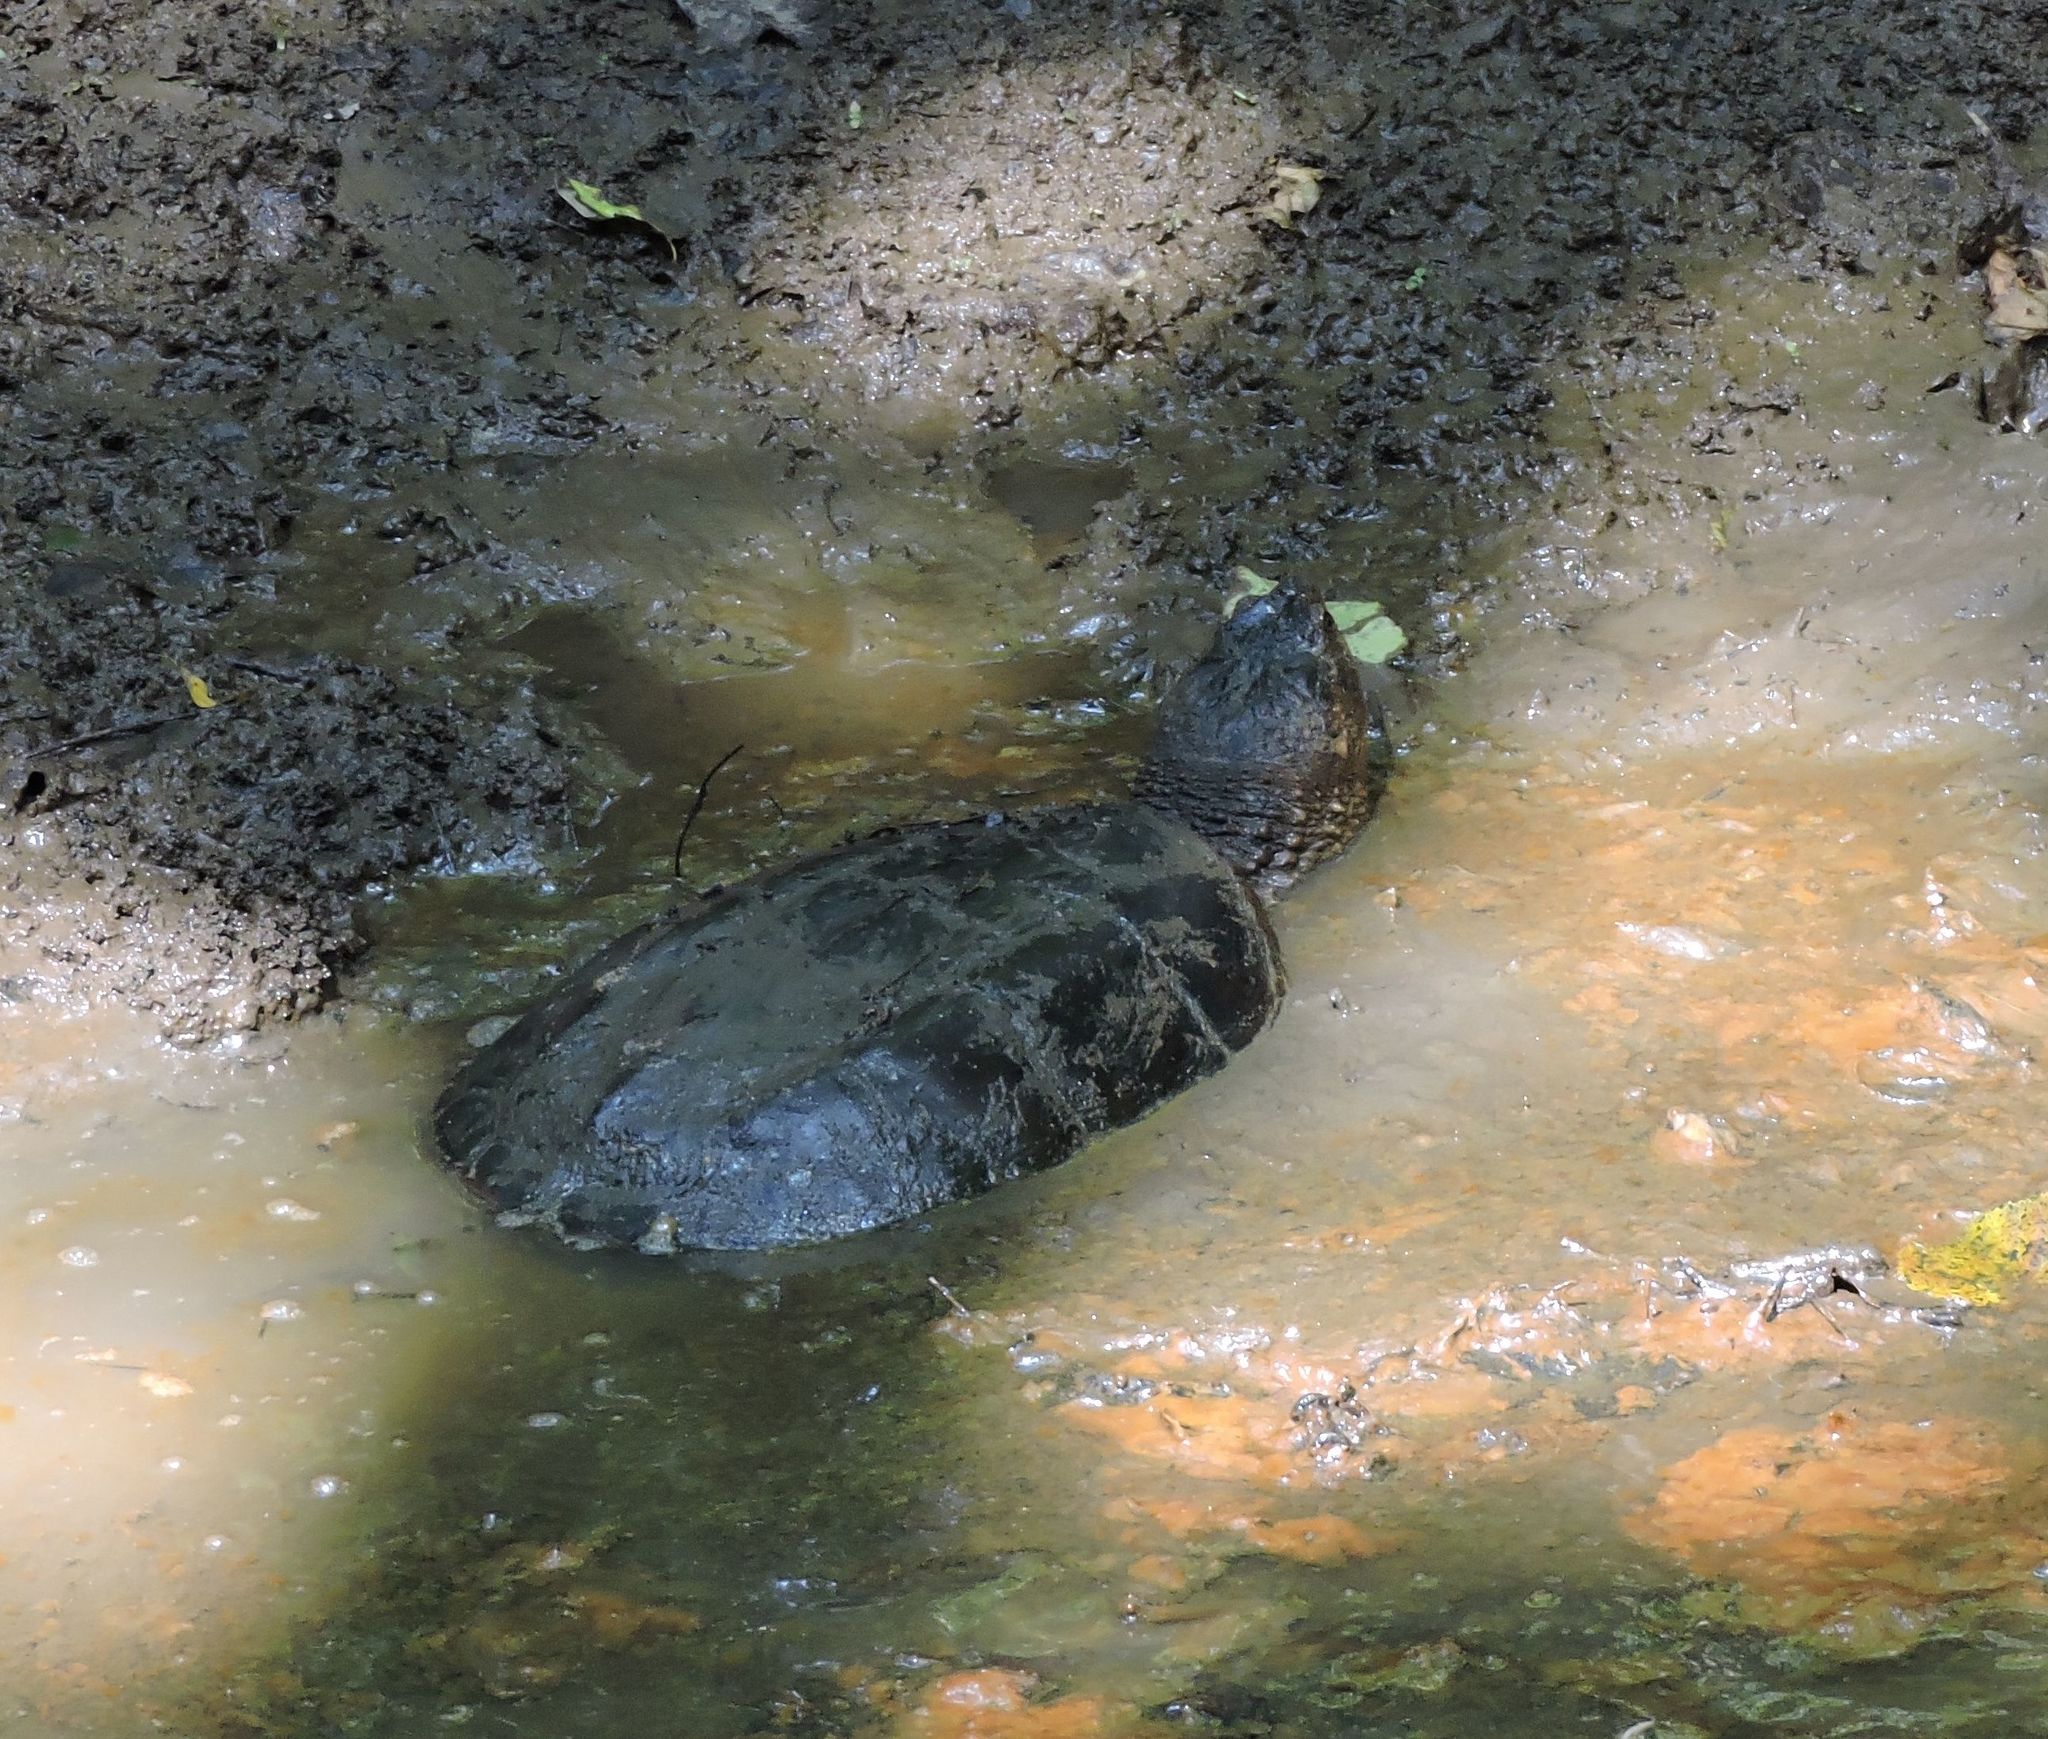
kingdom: Animalia
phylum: Chordata
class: Testudines
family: Chelydridae
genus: Chelydra
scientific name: Chelydra serpentina
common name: Common snapping turtle
